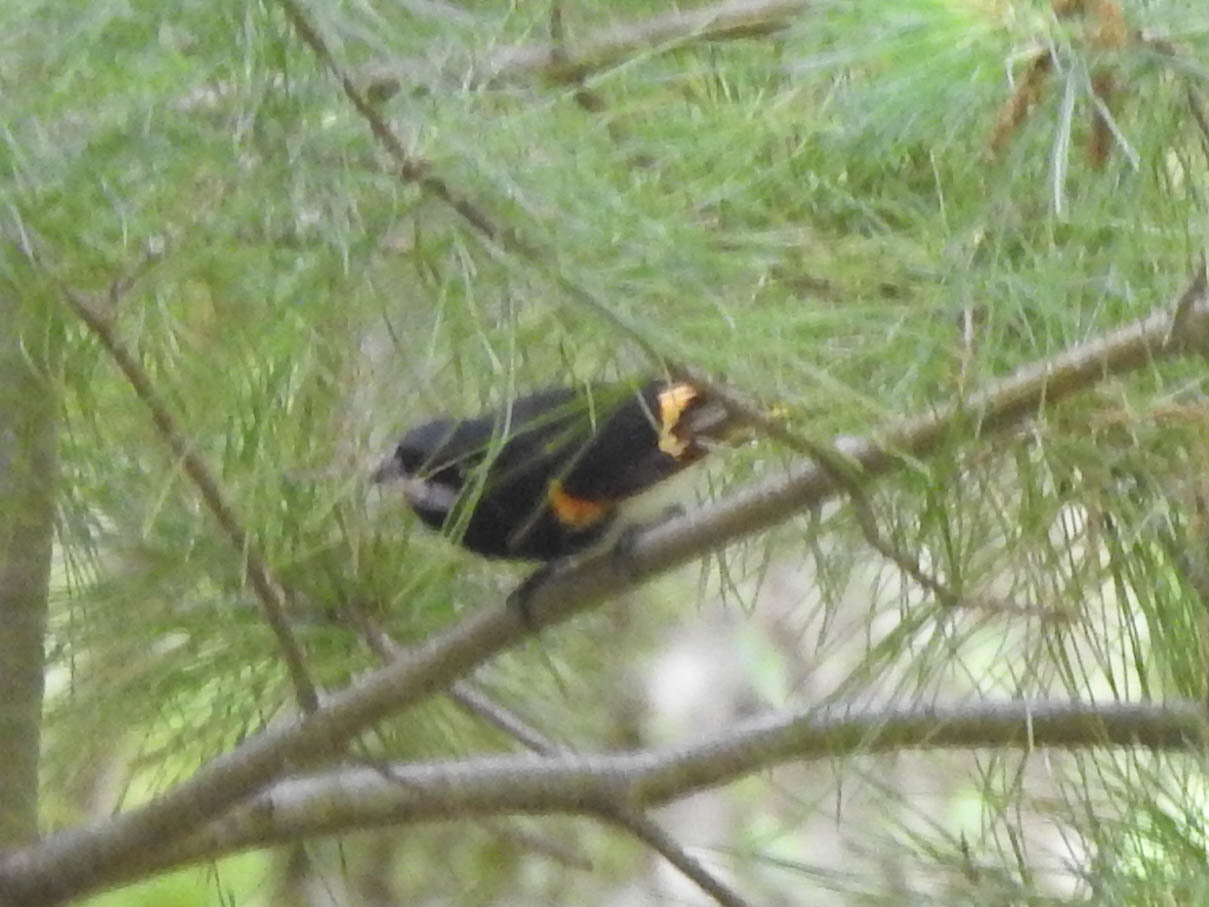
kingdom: Animalia
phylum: Chordata
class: Aves
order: Passeriformes
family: Parulidae
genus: Setophaga
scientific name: Setophaga ruticilla
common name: American redstart
